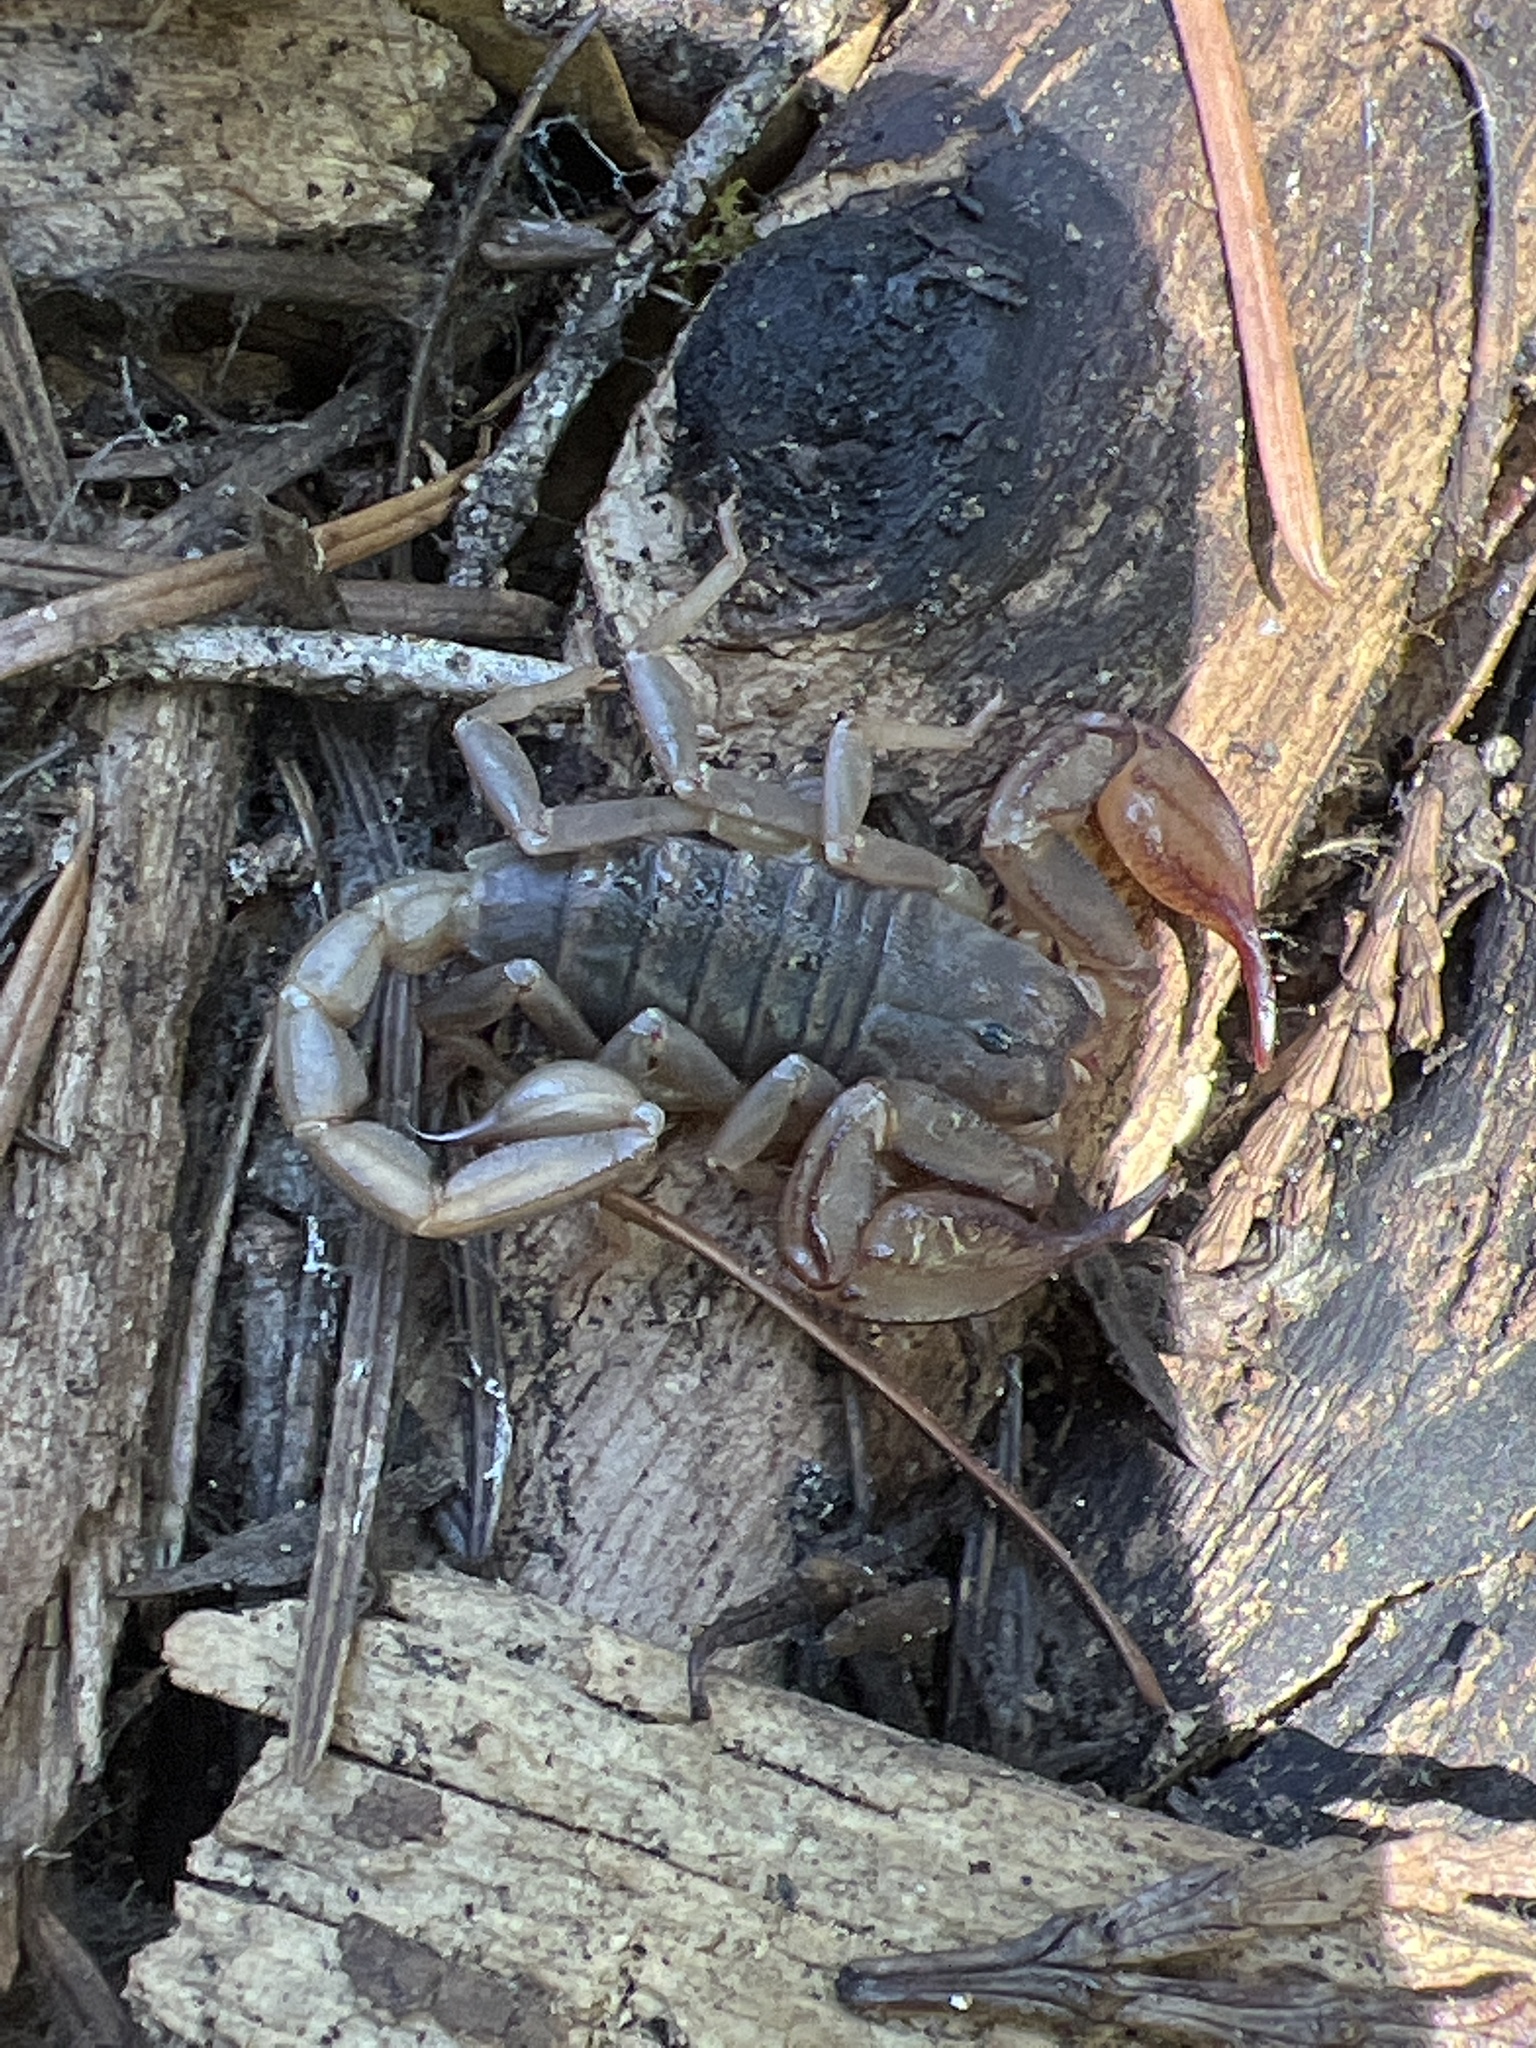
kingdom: Animalia
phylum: Arthropoda
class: Arachnida
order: Scorpiones
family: Chactidae
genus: Uroctonus
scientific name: Uroctonus mordax
